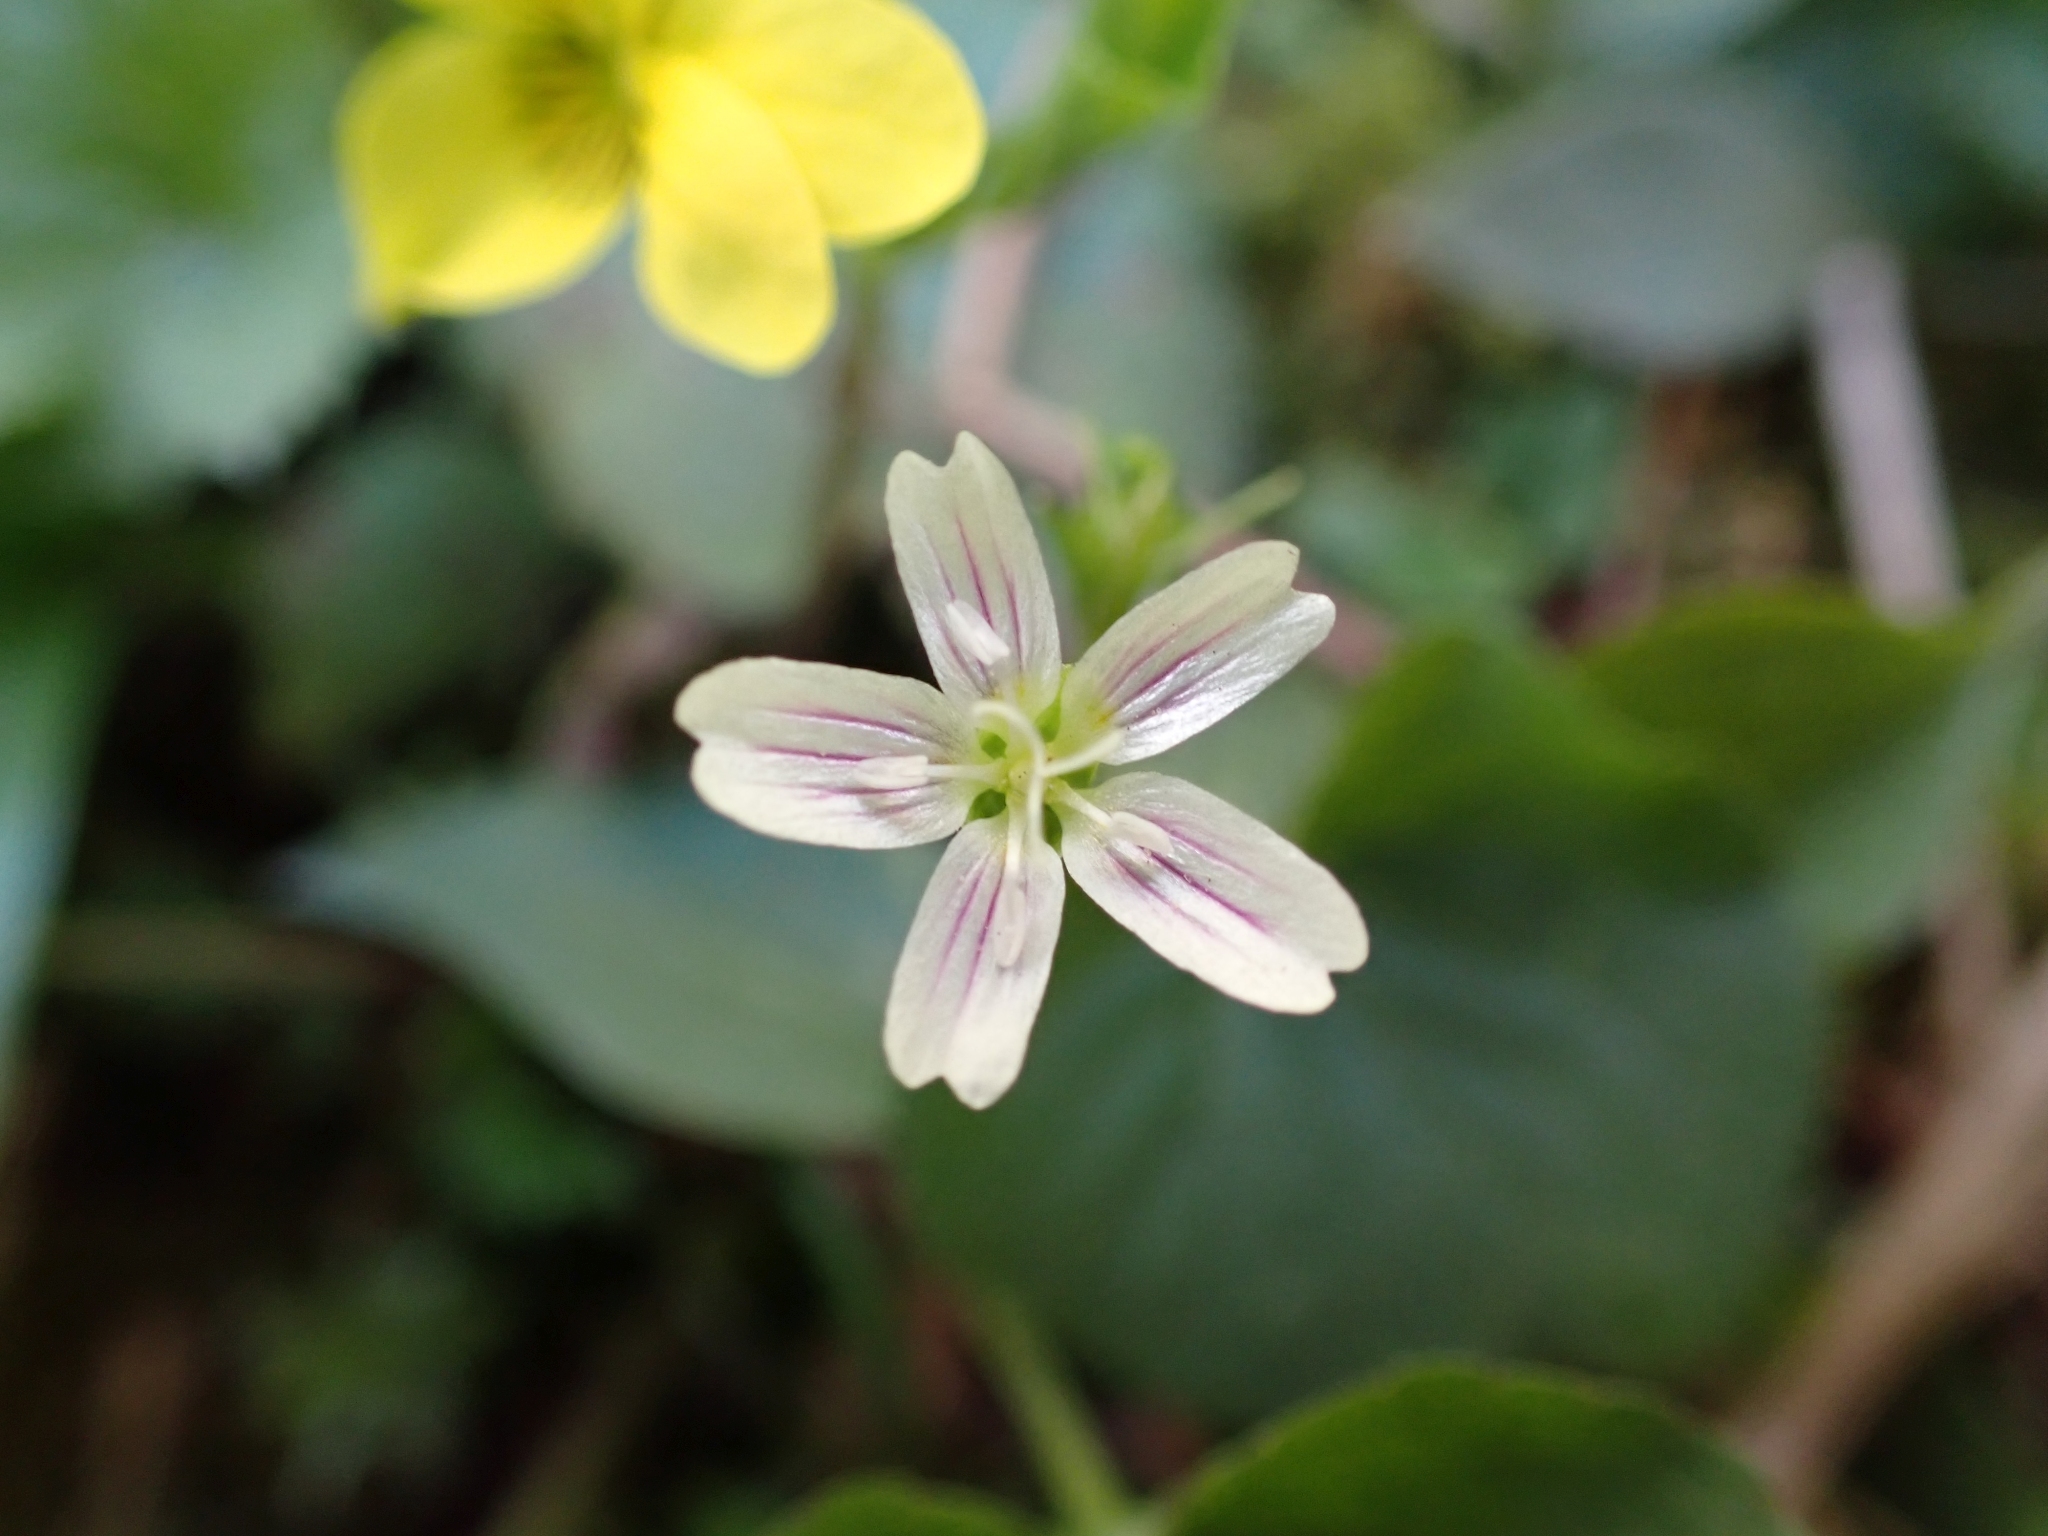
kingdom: Plantae
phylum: Tracheophyta
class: Magnoliopsida
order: Caryophyllales
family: Montiaceae
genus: Claytonia
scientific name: Claytonia sibirica
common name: Pink purslane
